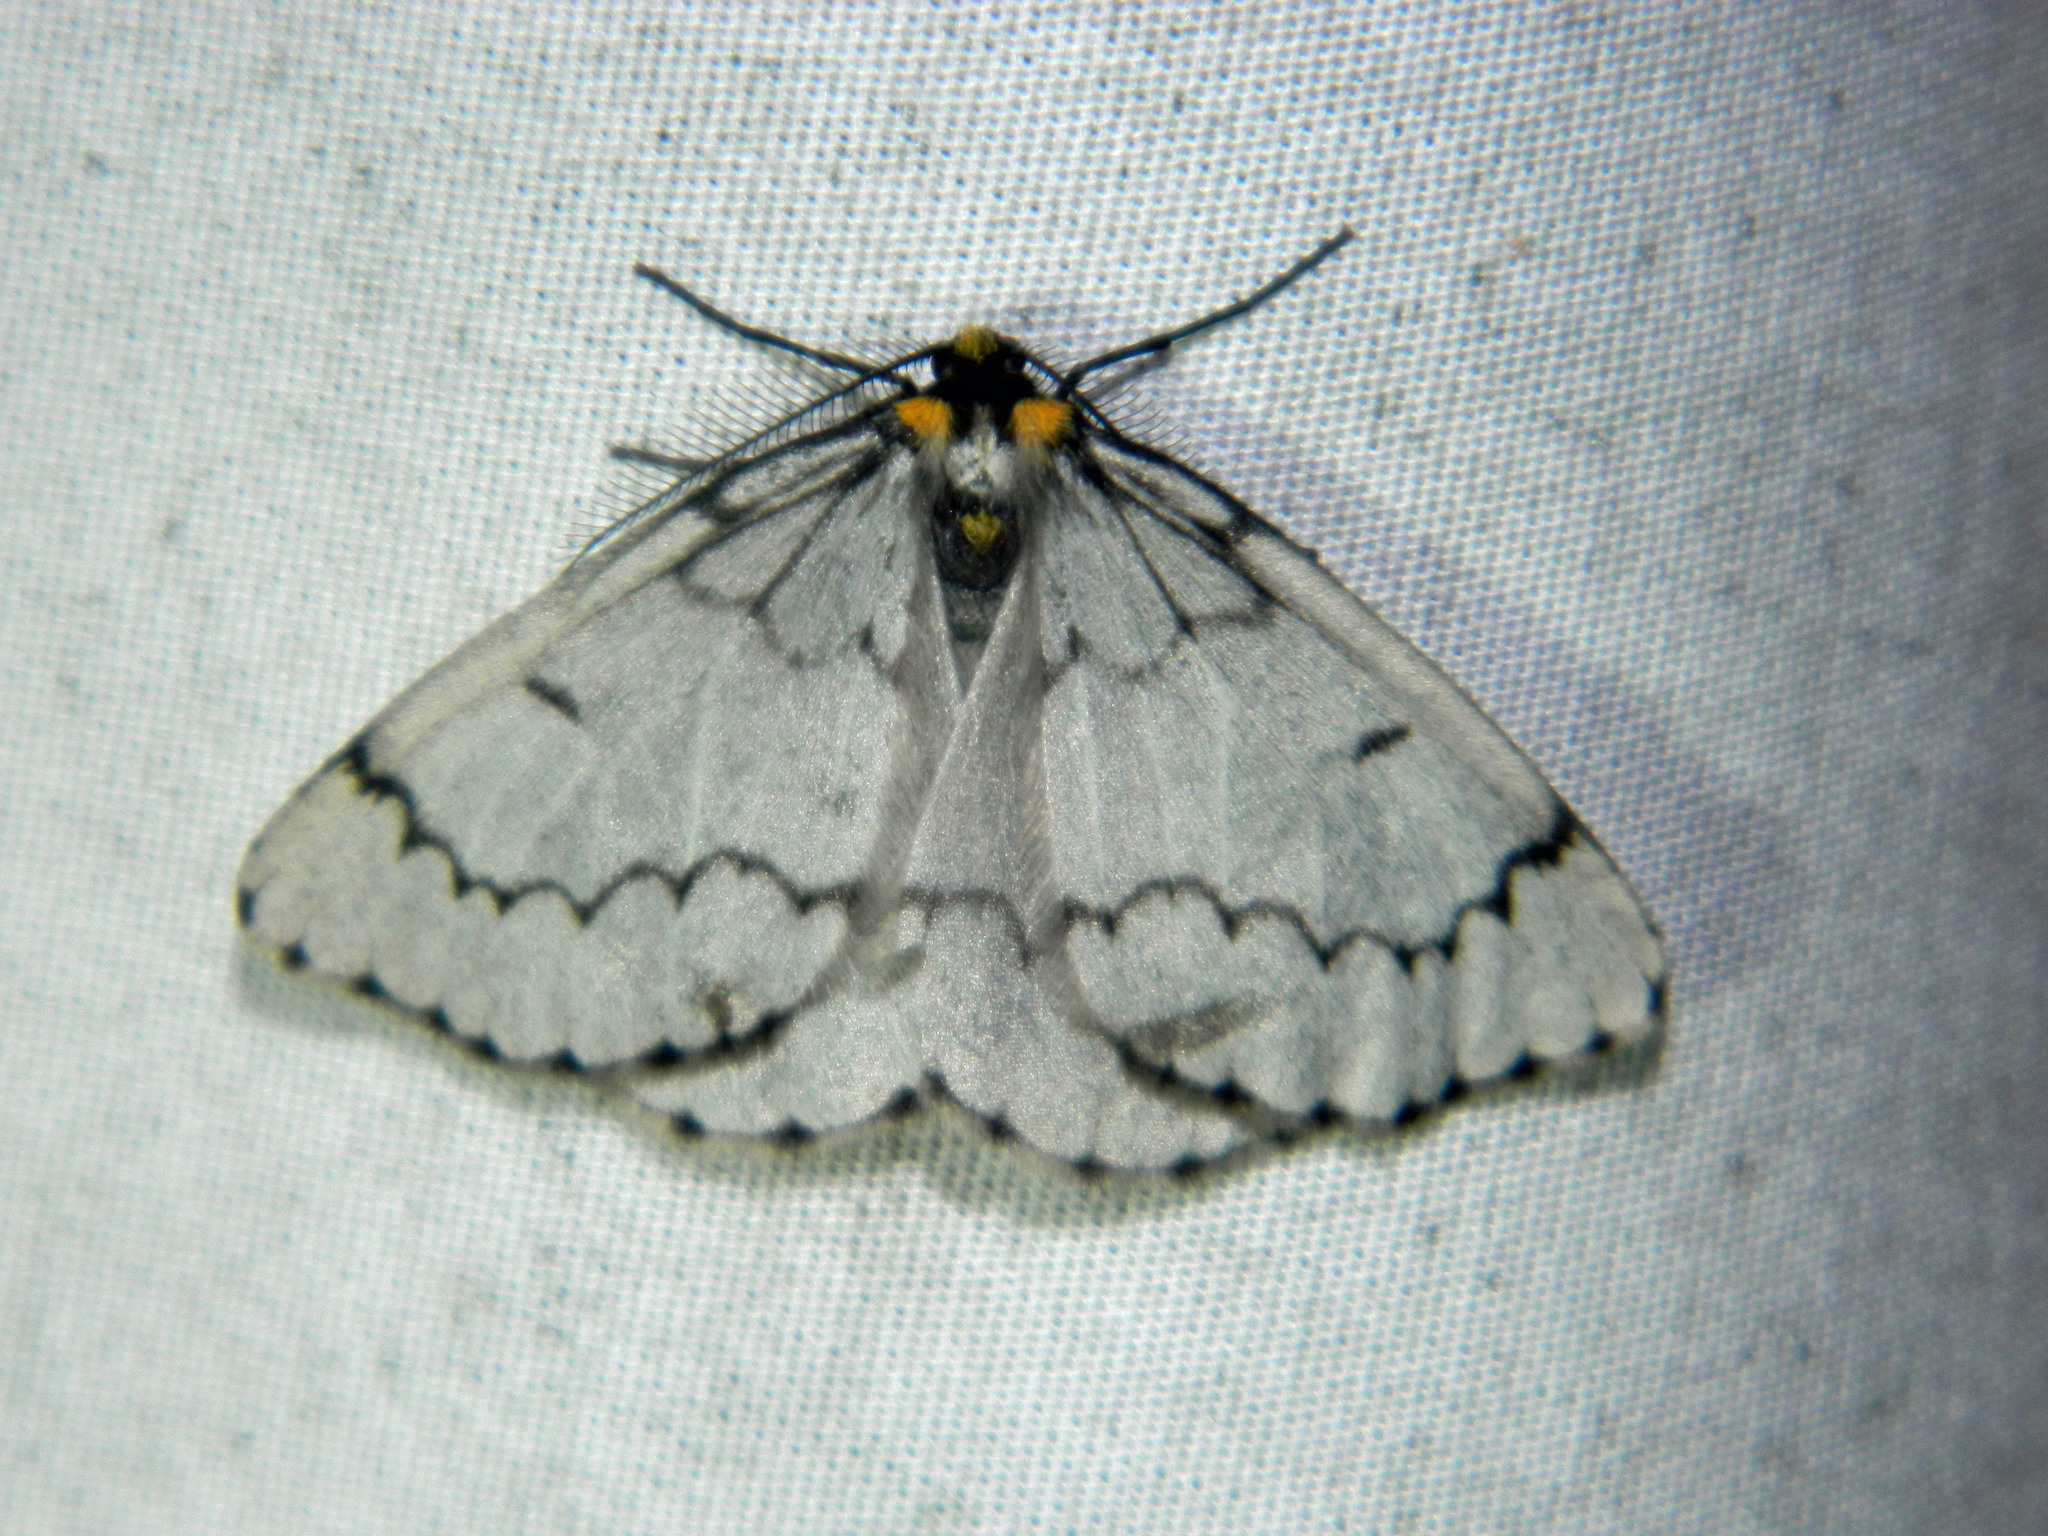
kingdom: Animalia
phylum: Arthropoda
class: Insecta
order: Lepidoptera
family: Geometridae
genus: Cingilia
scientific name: Cingilia catenaria
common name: Chain-dotted geometer
